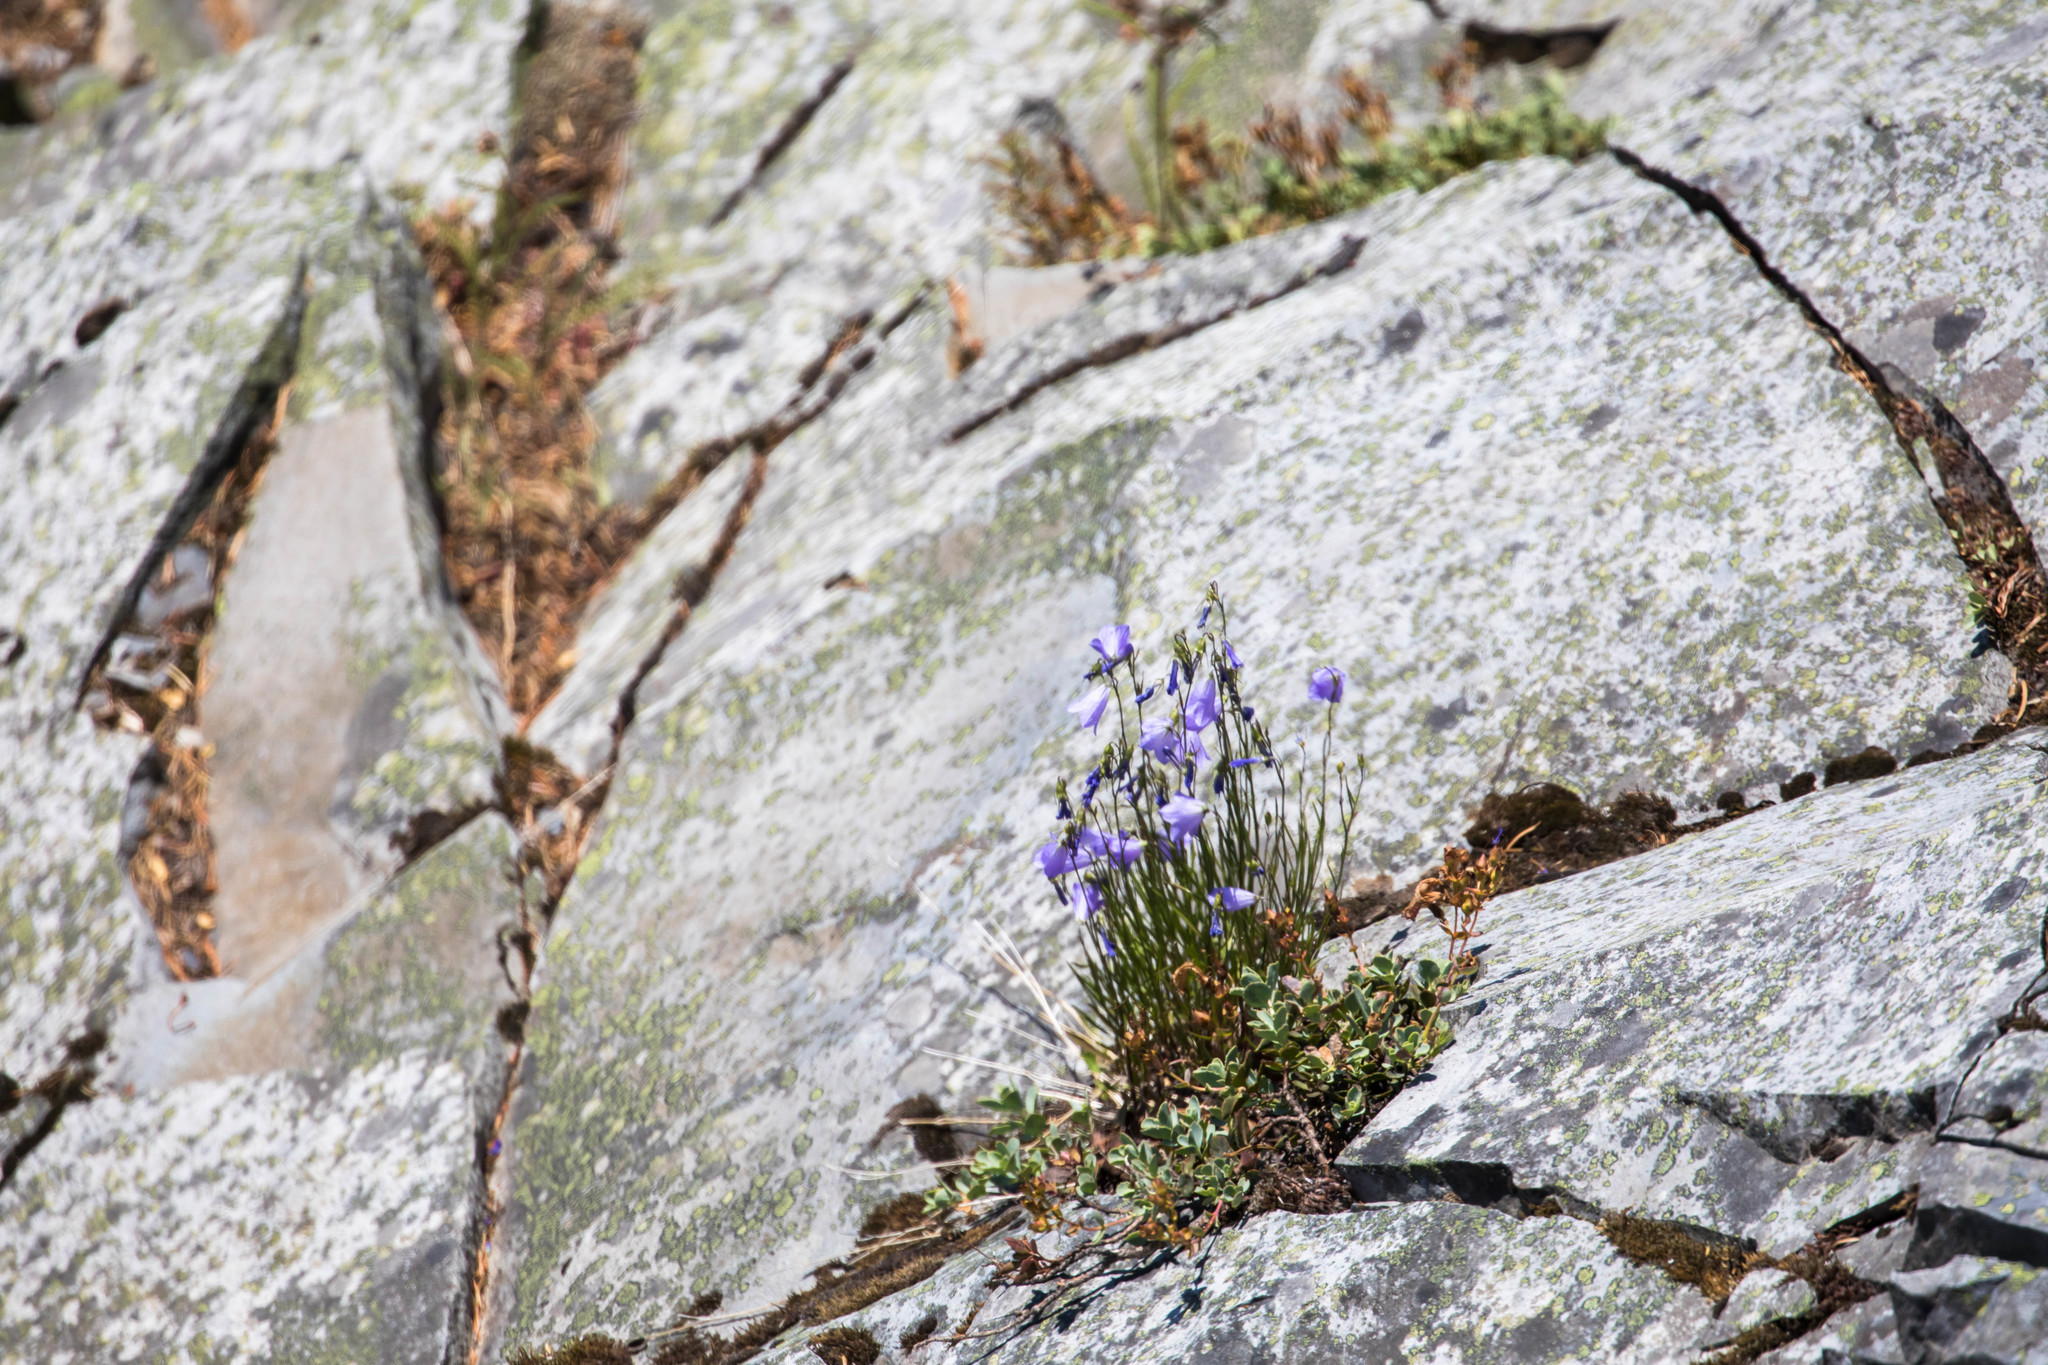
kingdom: Plantae
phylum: Tracheophyta
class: Magnoliopsida
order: Asterales
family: Campanulaceae
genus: Campanula
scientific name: Campanula petiolata
